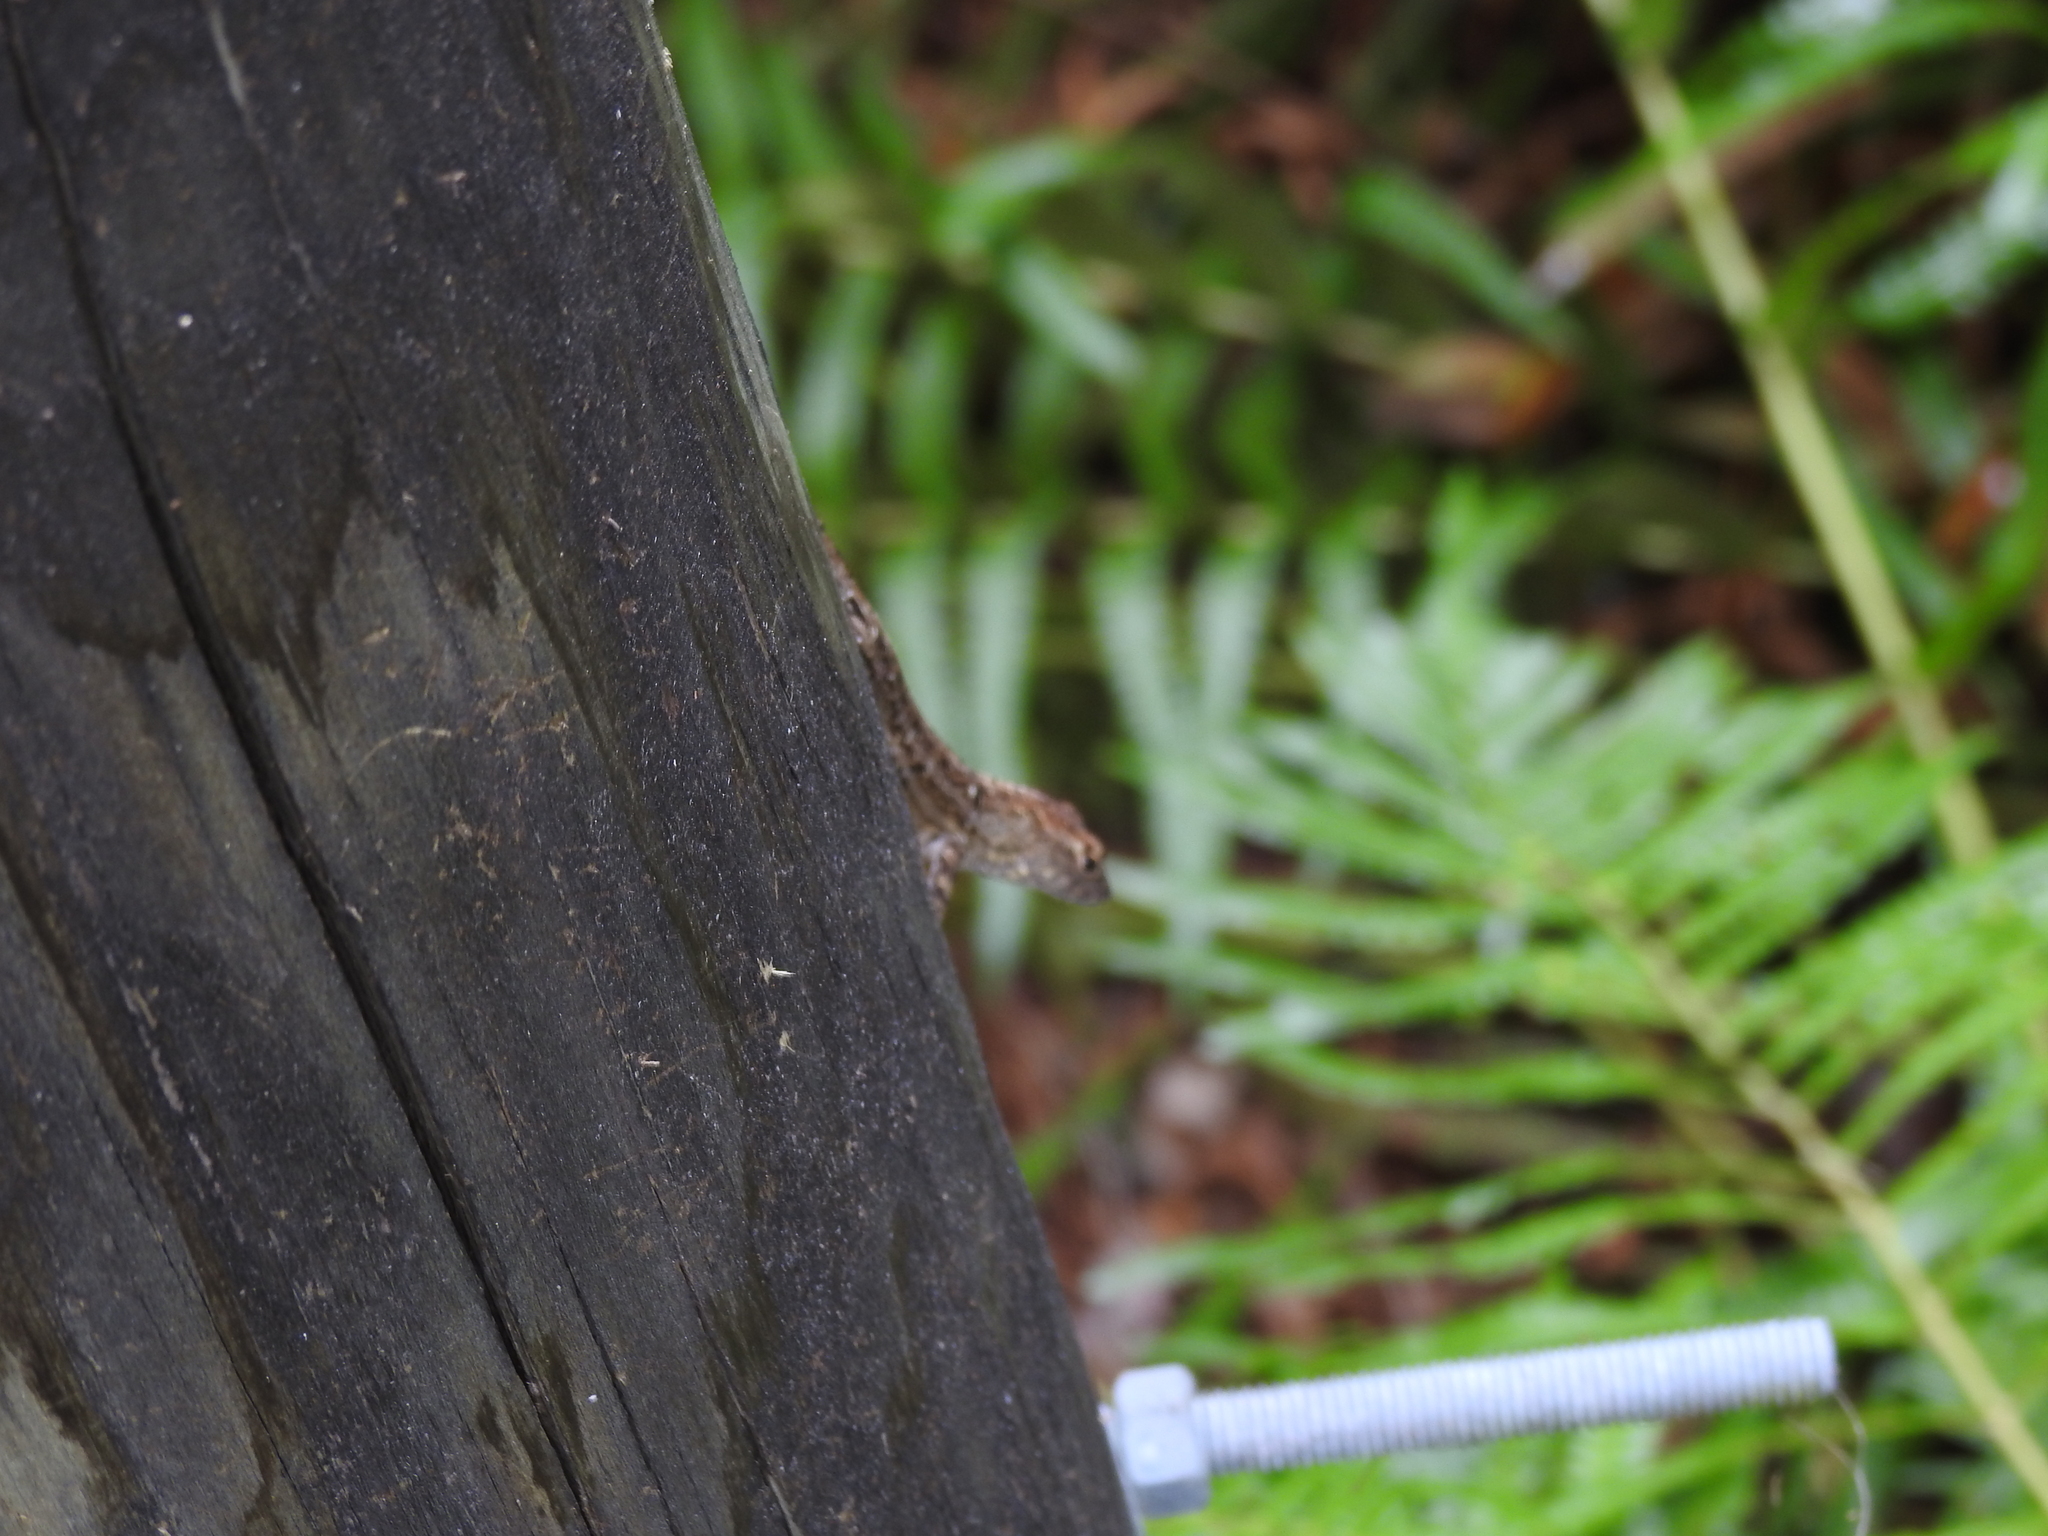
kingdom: Animalia
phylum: Chordata
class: Squamata
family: Dactyloidae
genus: Anolis
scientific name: Anolis sagrei
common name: Brown anole
